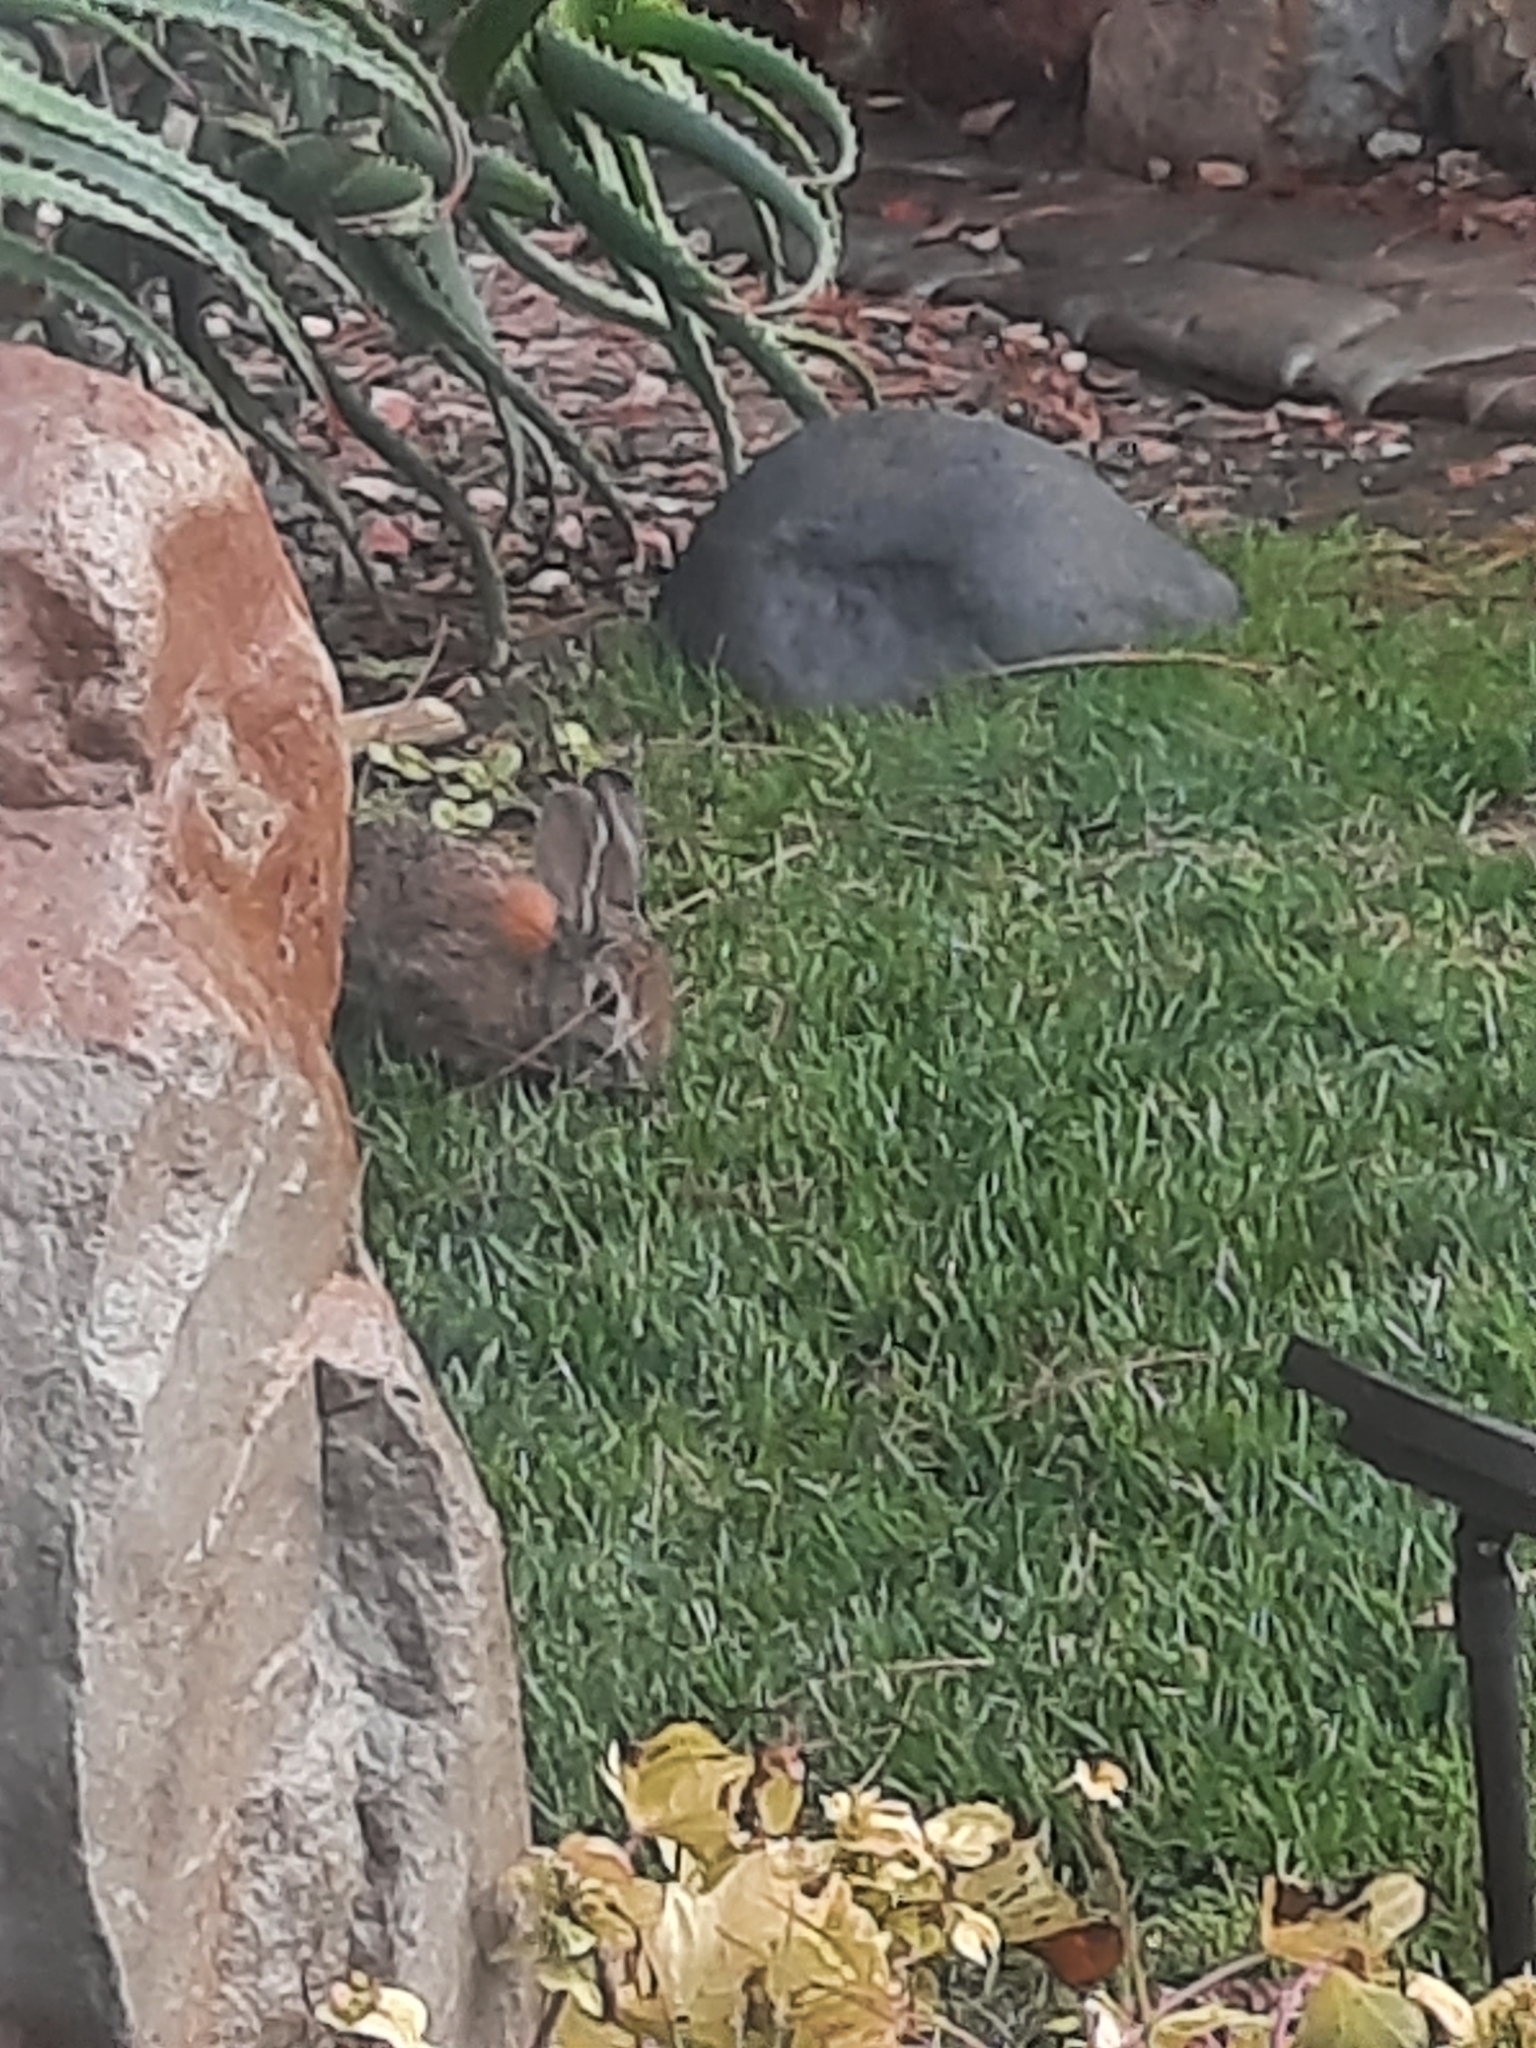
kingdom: Animalia
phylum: Chordata
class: Mammalia
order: Lagomorpha
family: Leporidae
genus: Sylvilagus
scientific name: Sylvilagus audubonii
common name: Desert cottontail
